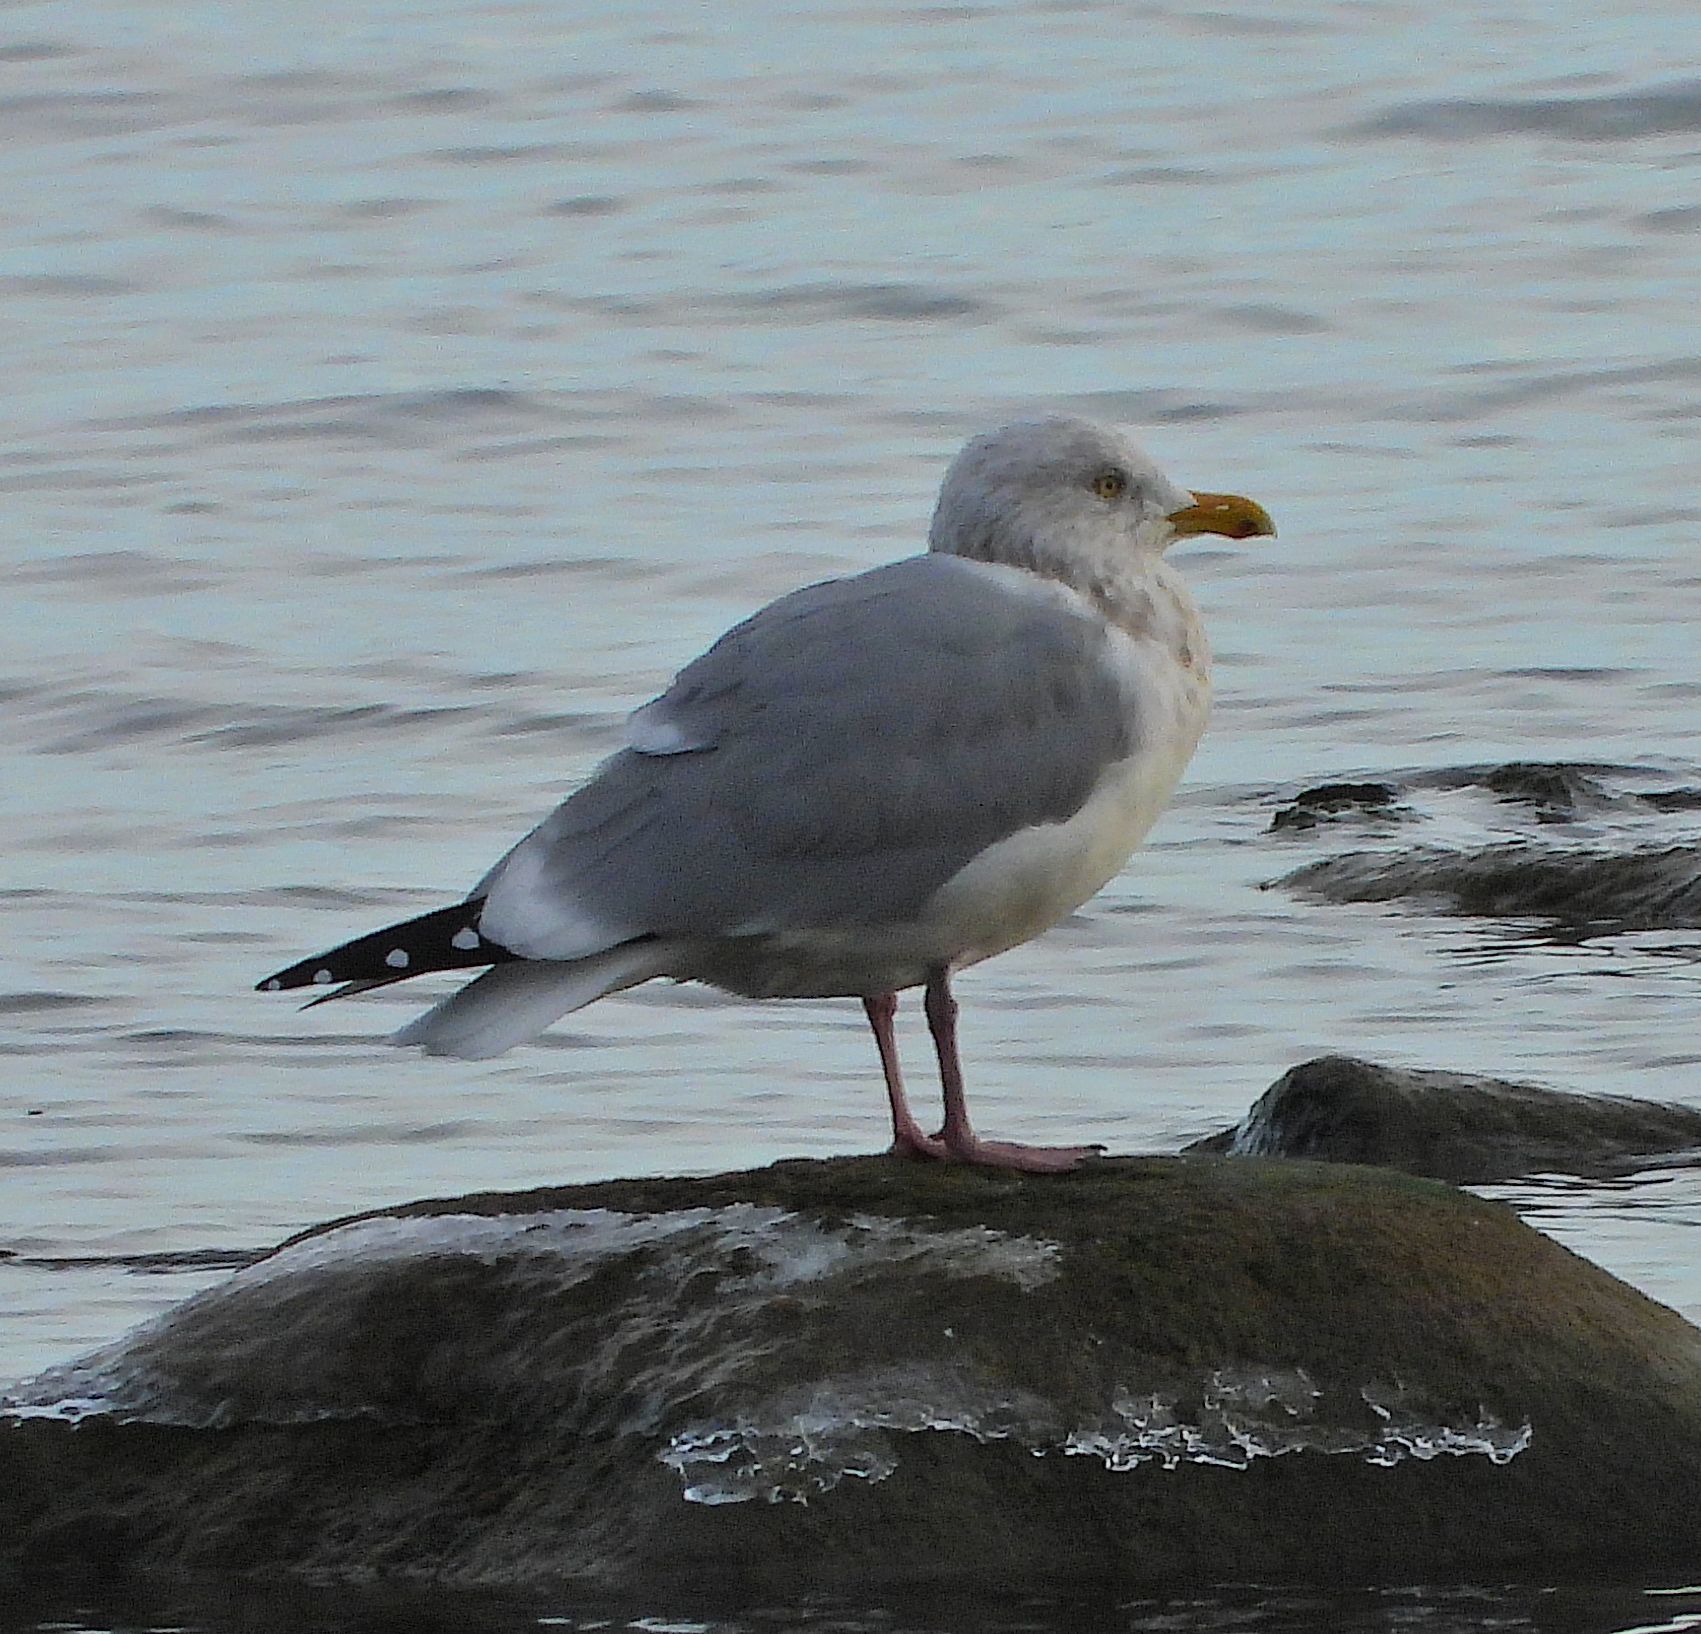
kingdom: Animalia
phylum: Chordata
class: Aves
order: Charadriiformes
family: Laridae
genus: Larus
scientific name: Larus argentatus
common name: Herring gull
